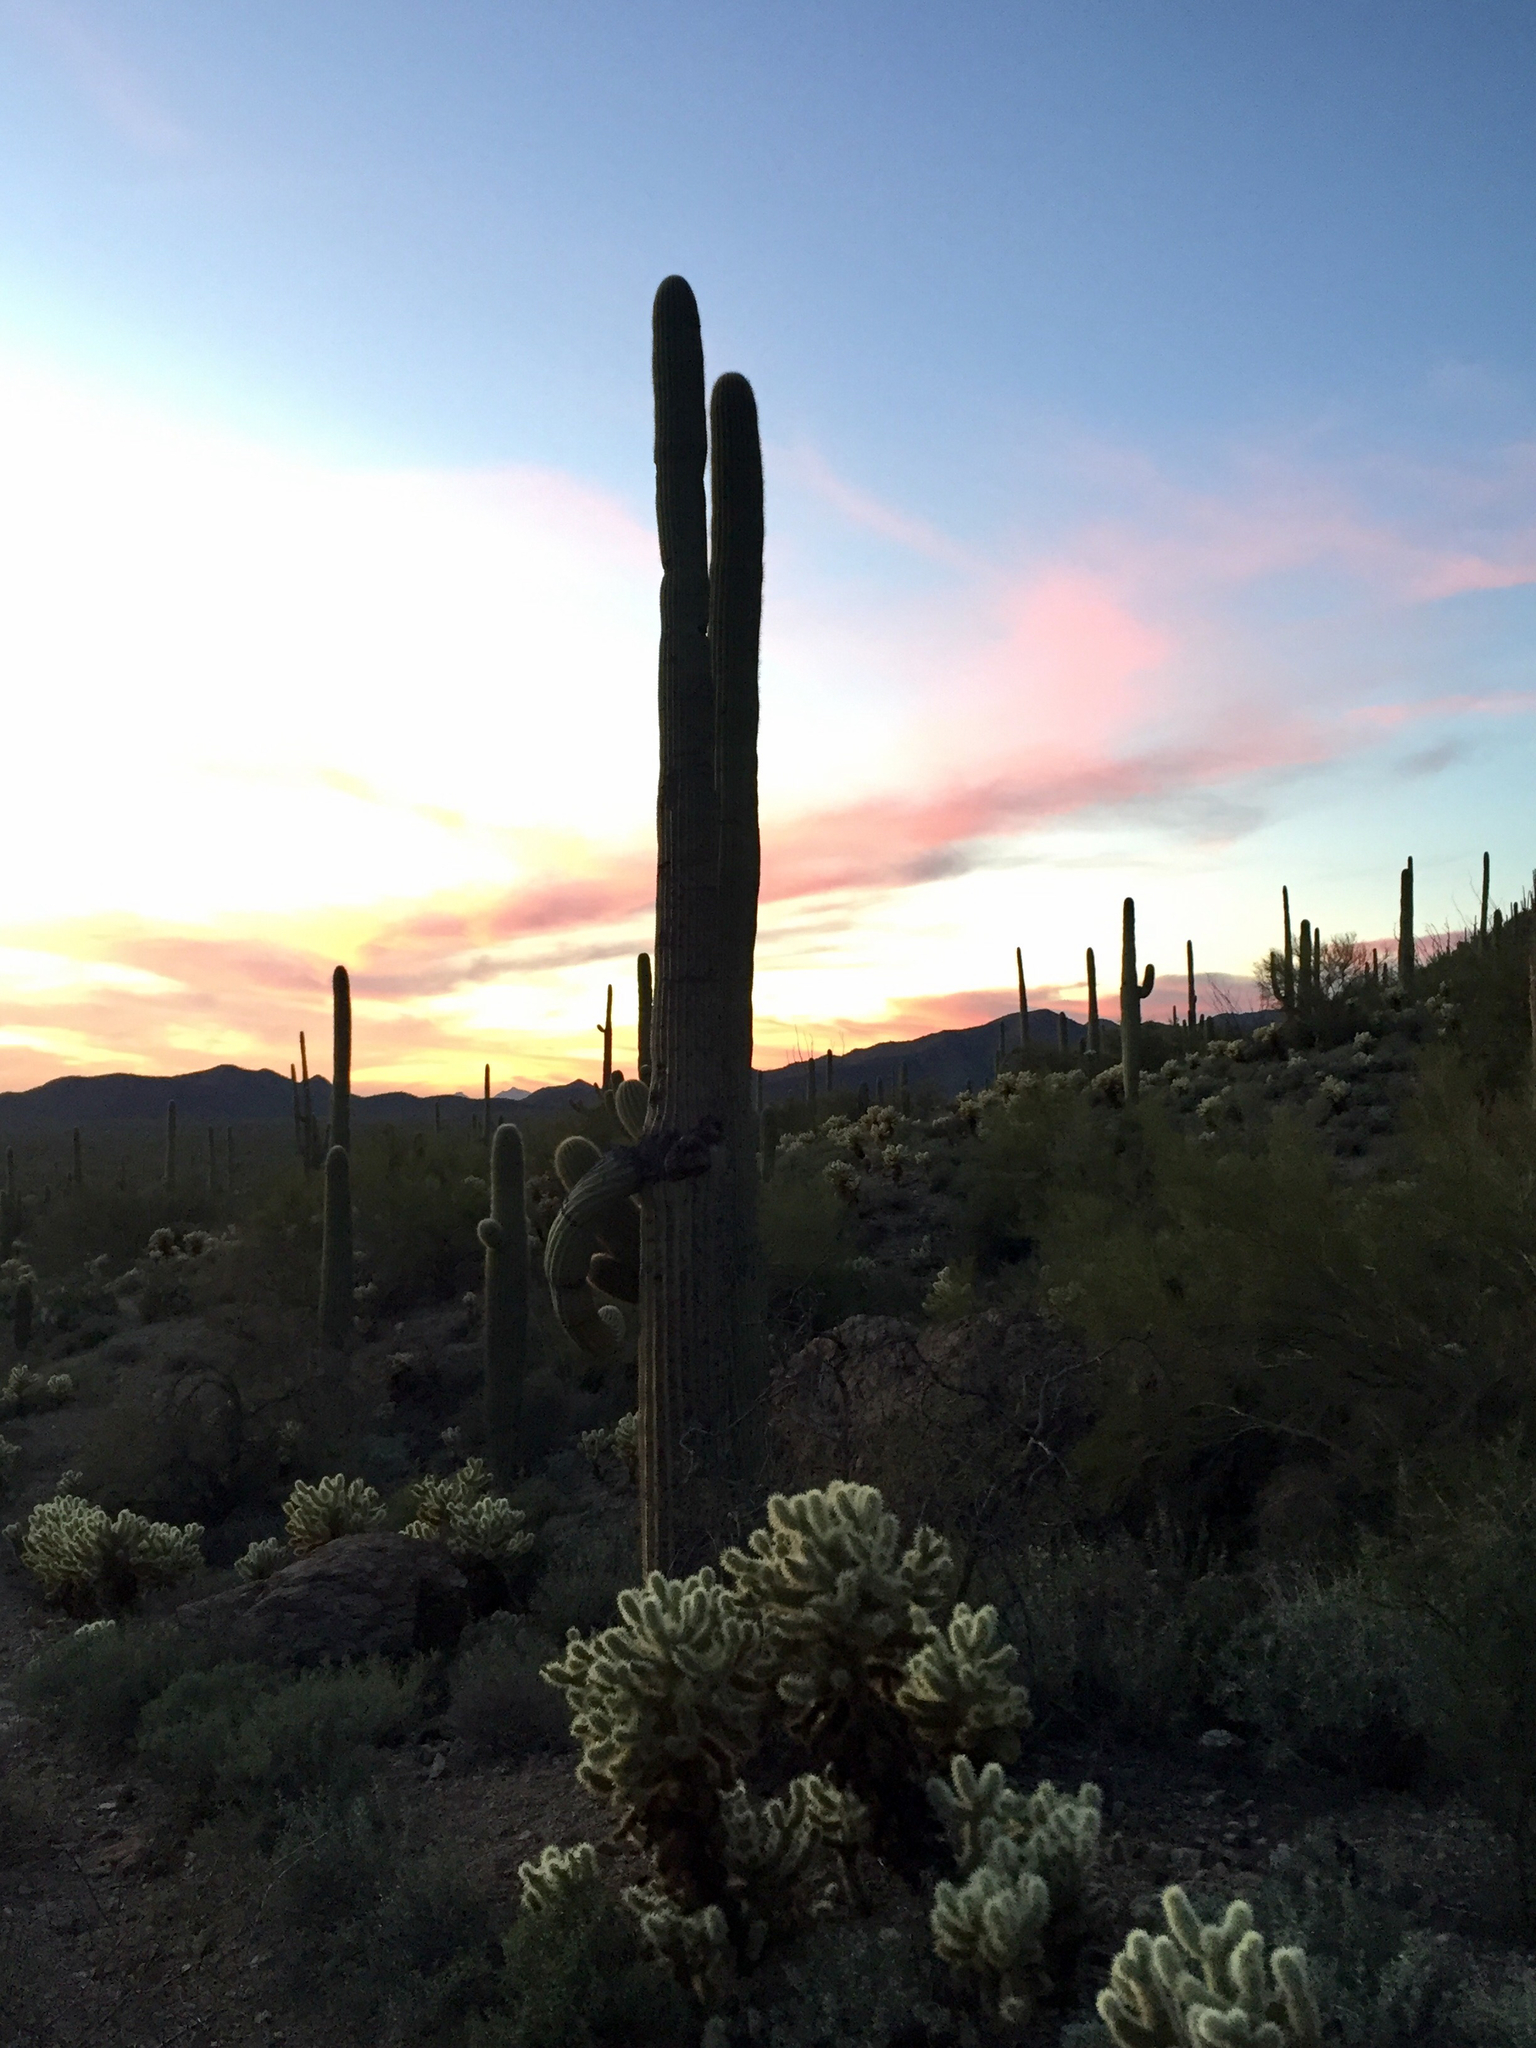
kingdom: Plantae
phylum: Tracheophyta
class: Magnoliopsida
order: Caryophyllales
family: Cactaceae
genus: Carnegiea
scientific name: Carnegiea gigantea
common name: Saguaro
